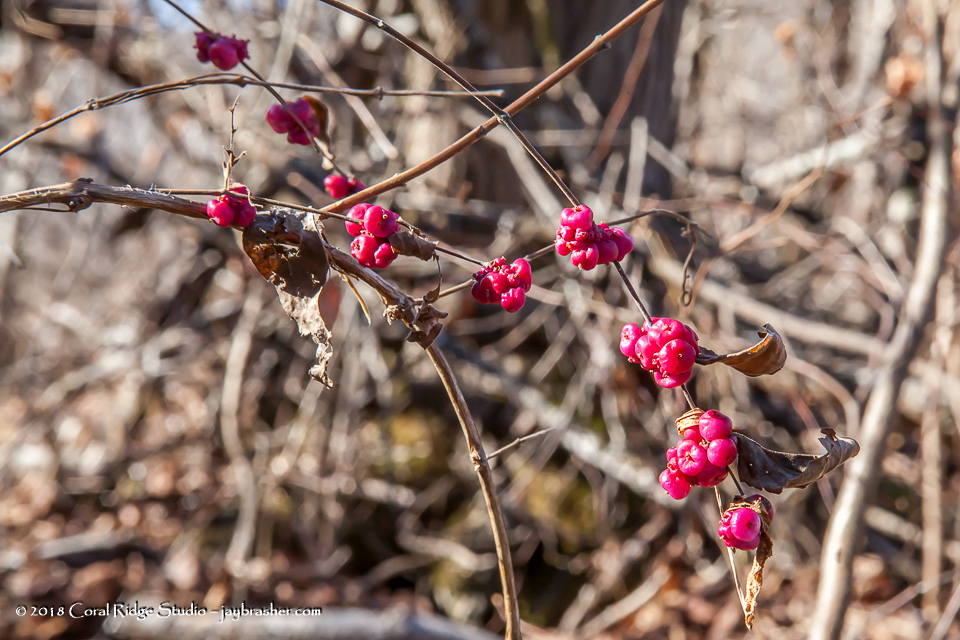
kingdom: Plantae
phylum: Tracheophyta
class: Magnoliopsida
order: Dipsacales
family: Caprifoliaceae
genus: Symphoricarpos
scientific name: Symphoricarpos orbiculatus
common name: Coralberry
